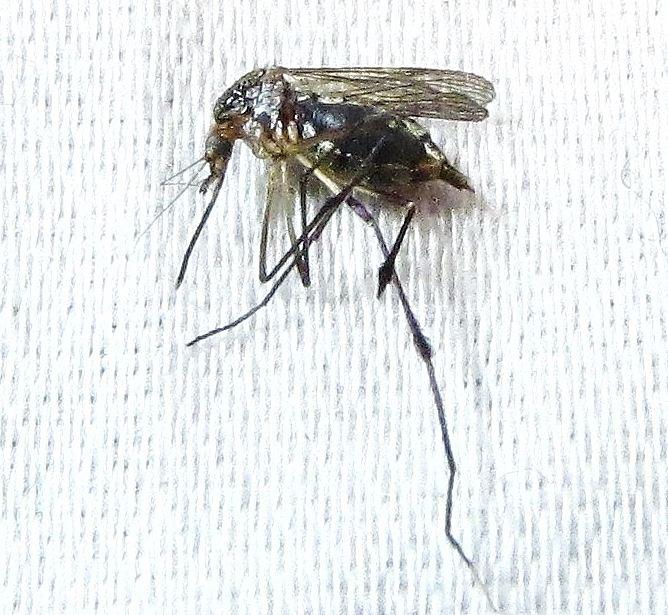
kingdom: Animalia
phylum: Arthropoda
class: Insecta
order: Diptera
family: Culicidae
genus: Psorophora
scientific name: Psorophora ferox
